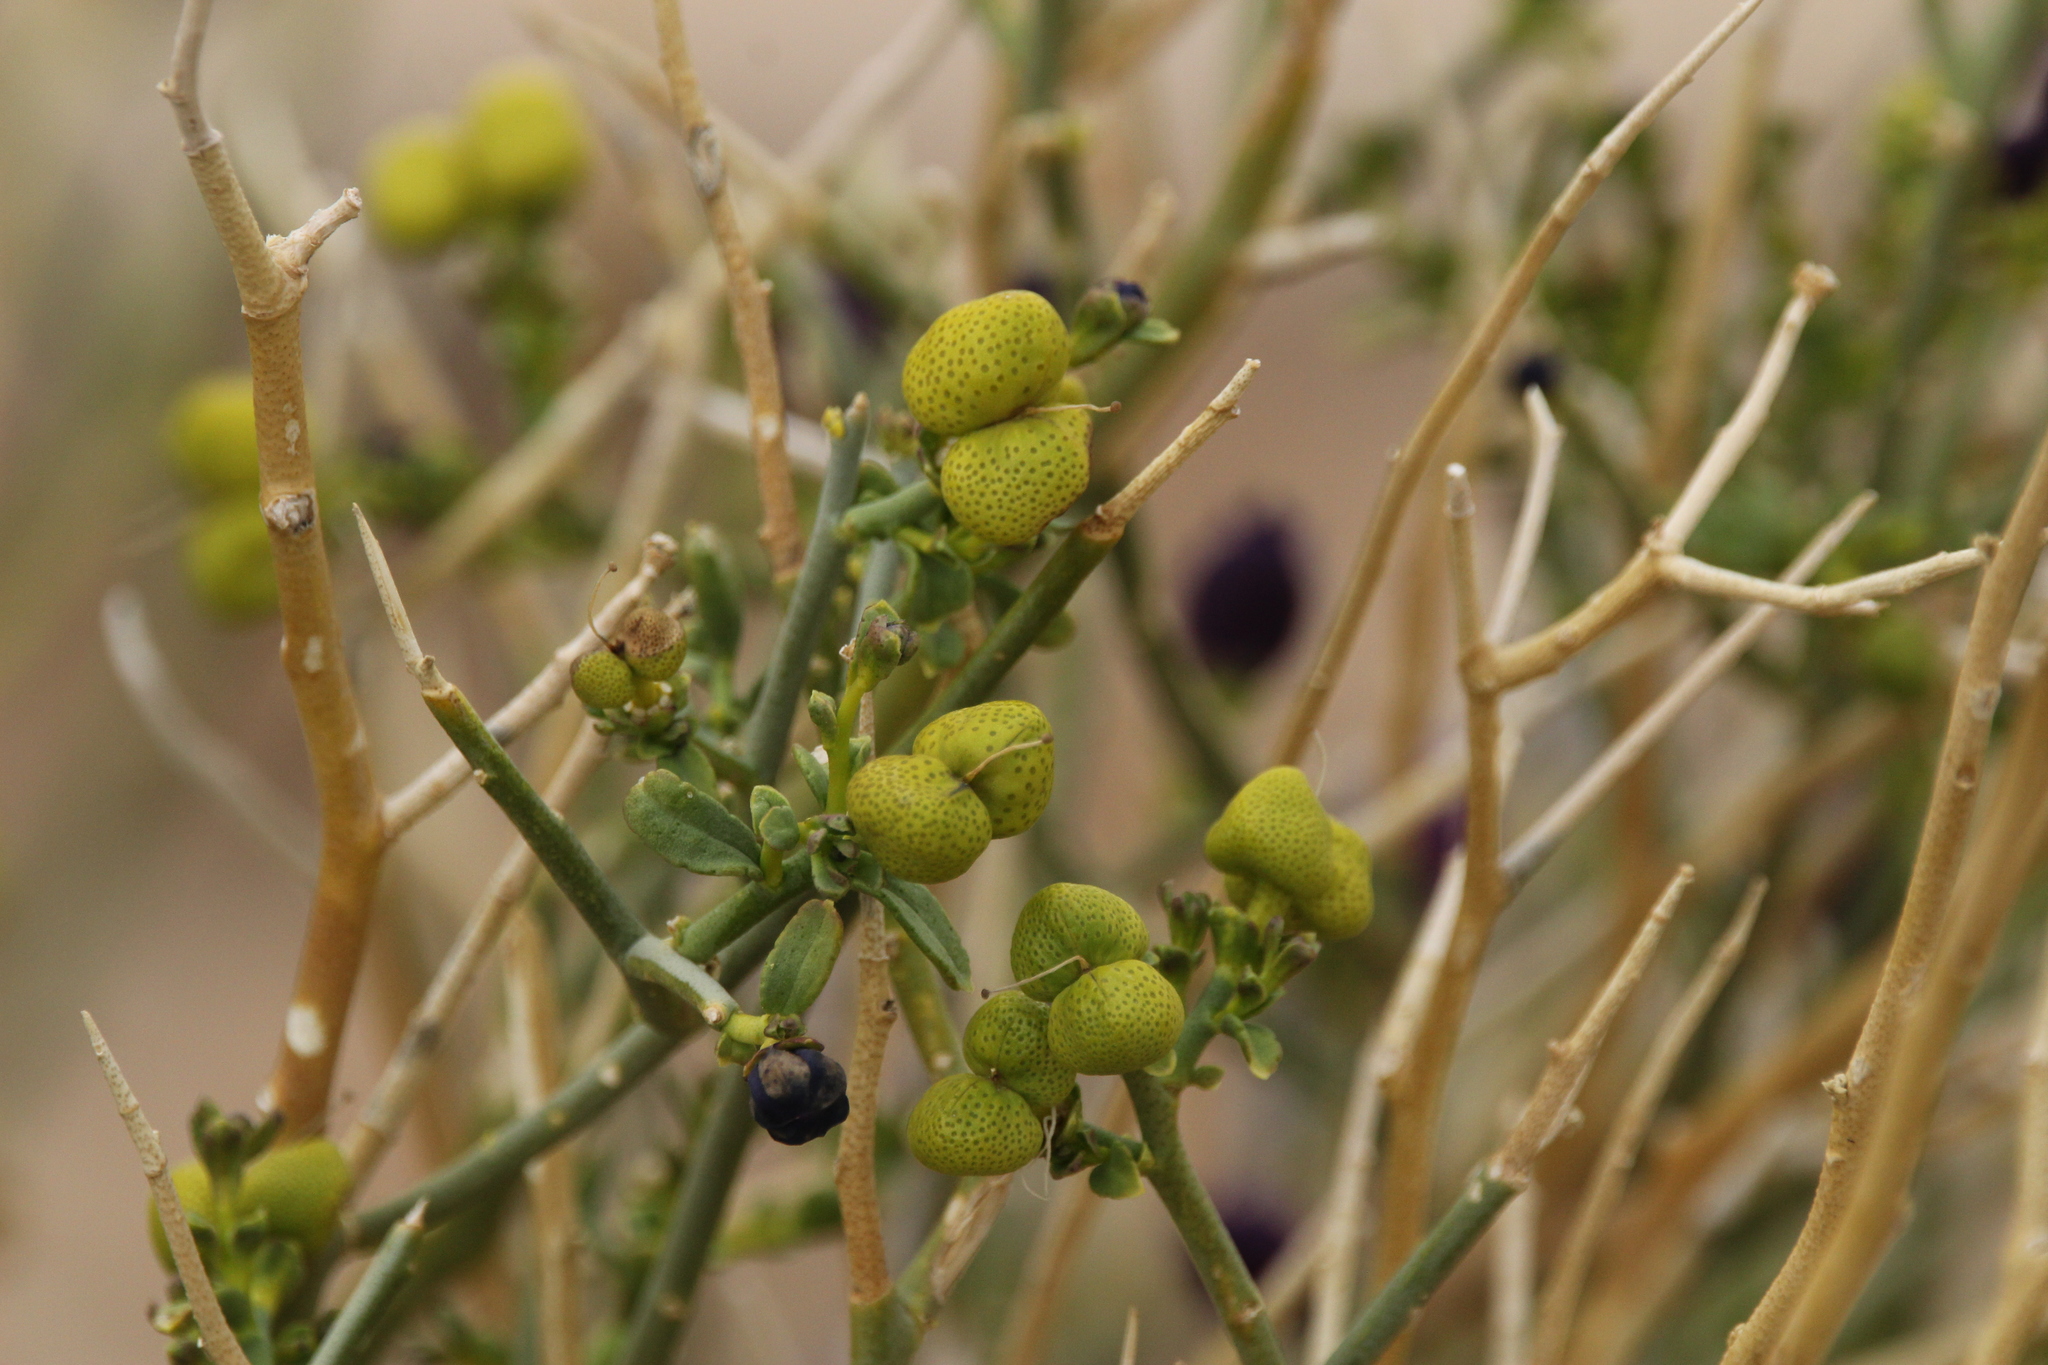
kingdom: Plantae
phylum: Tracheophyta
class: Magnoliopsida
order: Sapindales
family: Rutaceae
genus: Thamnosma
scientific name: Thamnosma montana
